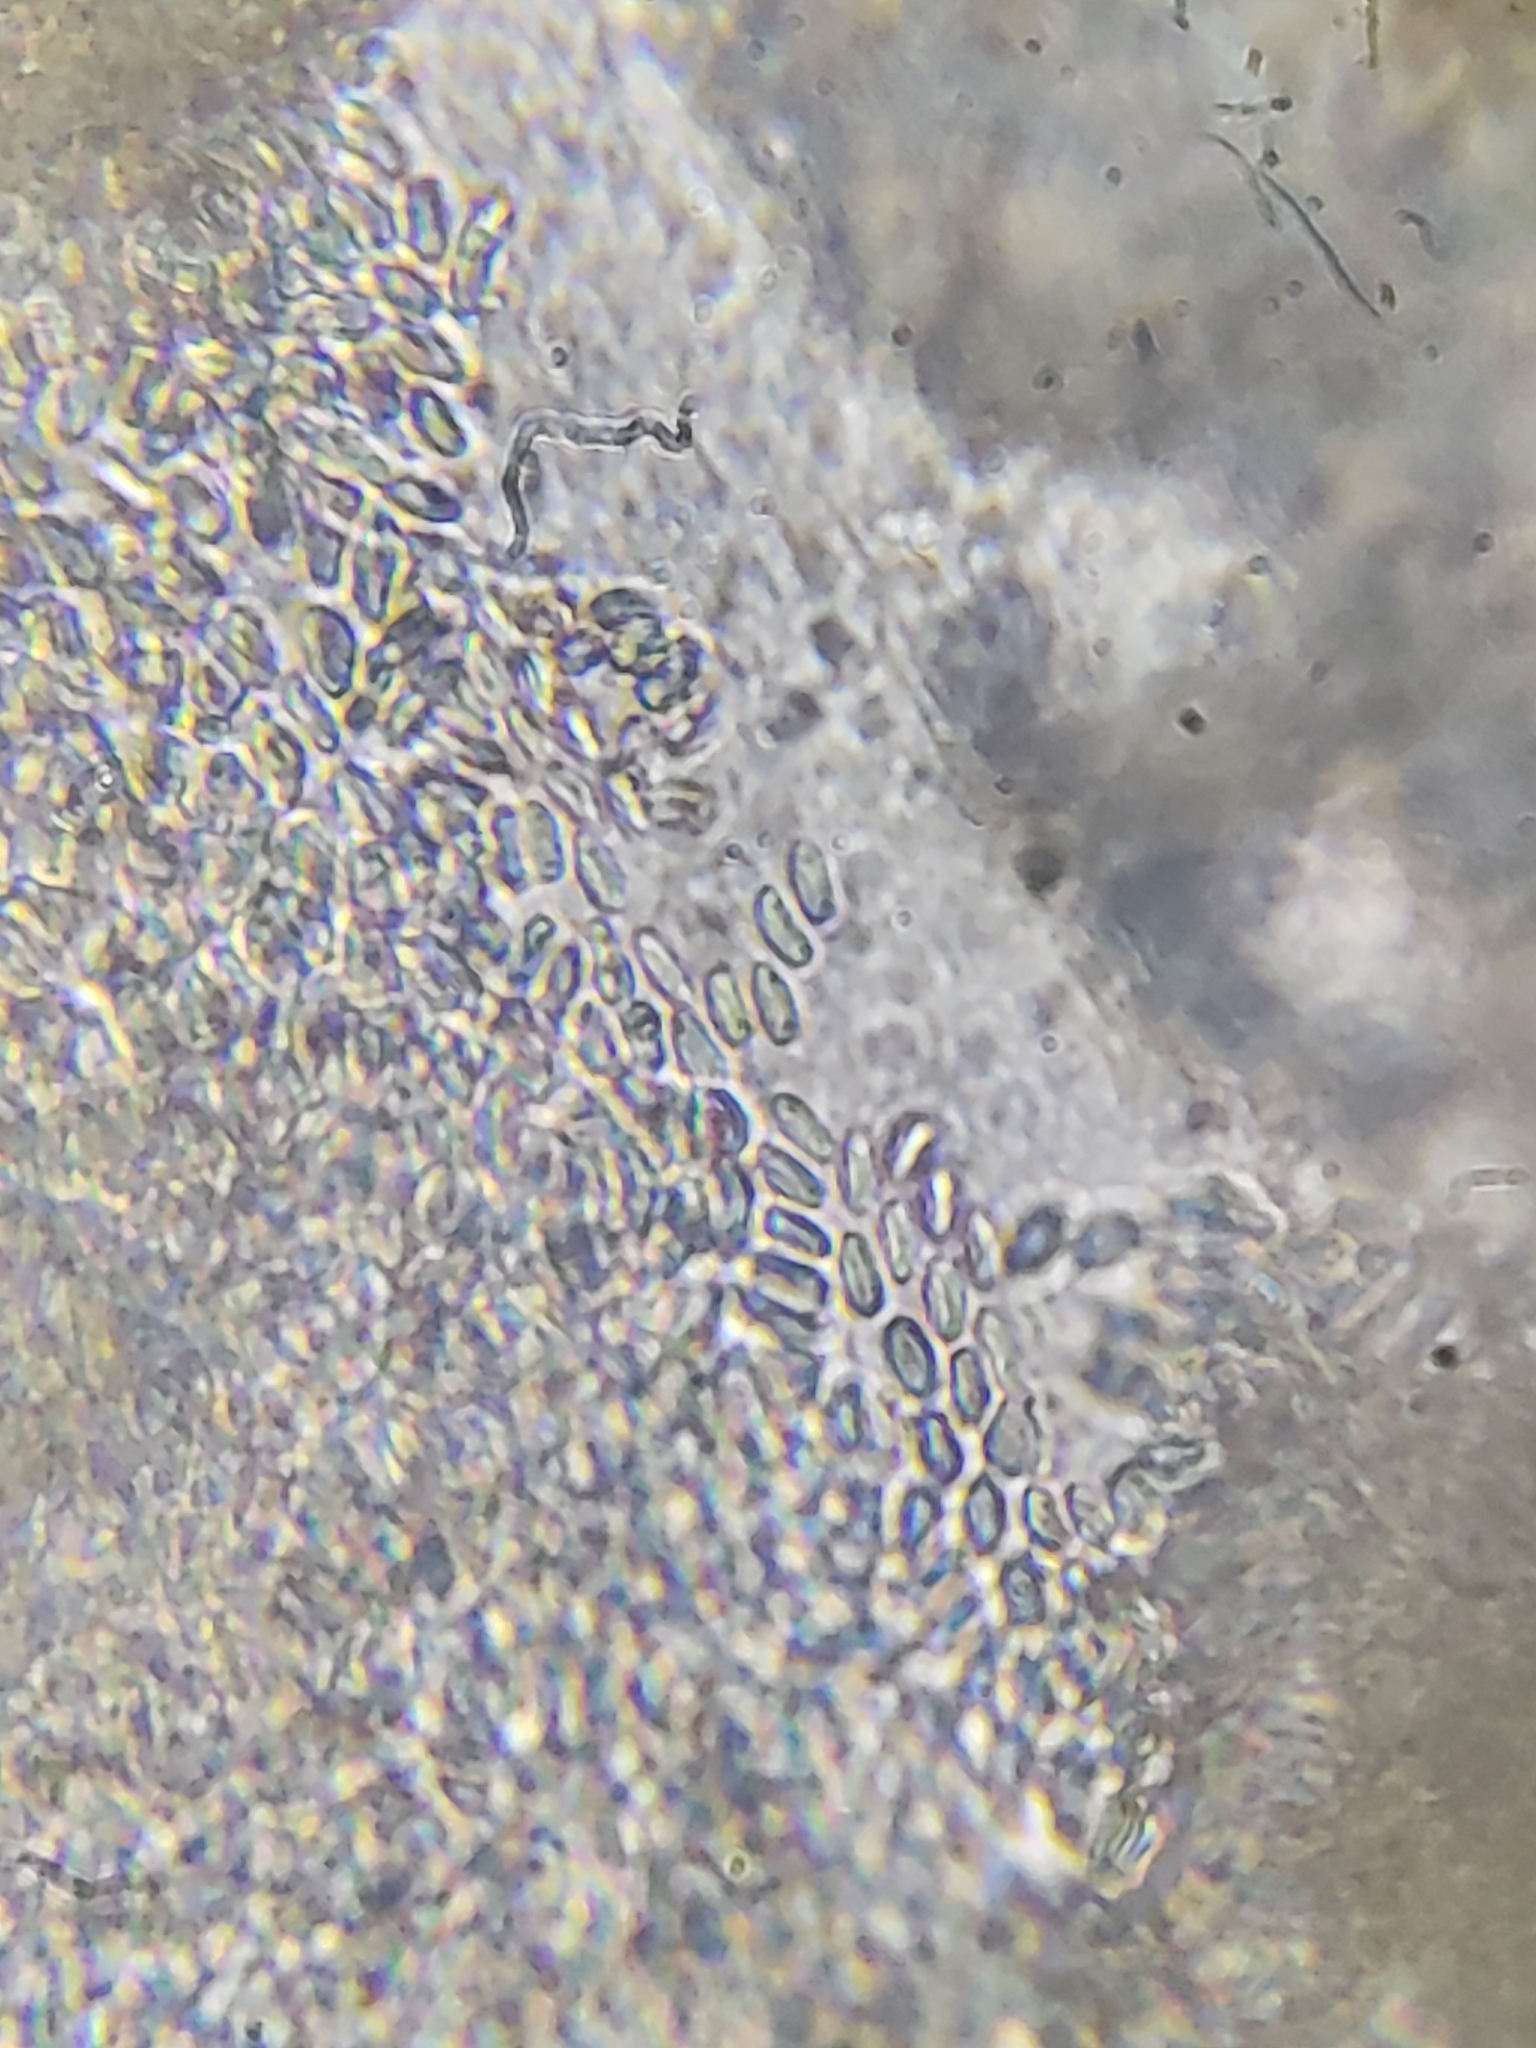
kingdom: Fungi
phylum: Basidiomycota
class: Agaricomycetes
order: Phallales
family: Phallaceae
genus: Phallus
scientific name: Phallus rugulosus
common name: Wrinkly stinkhorn
